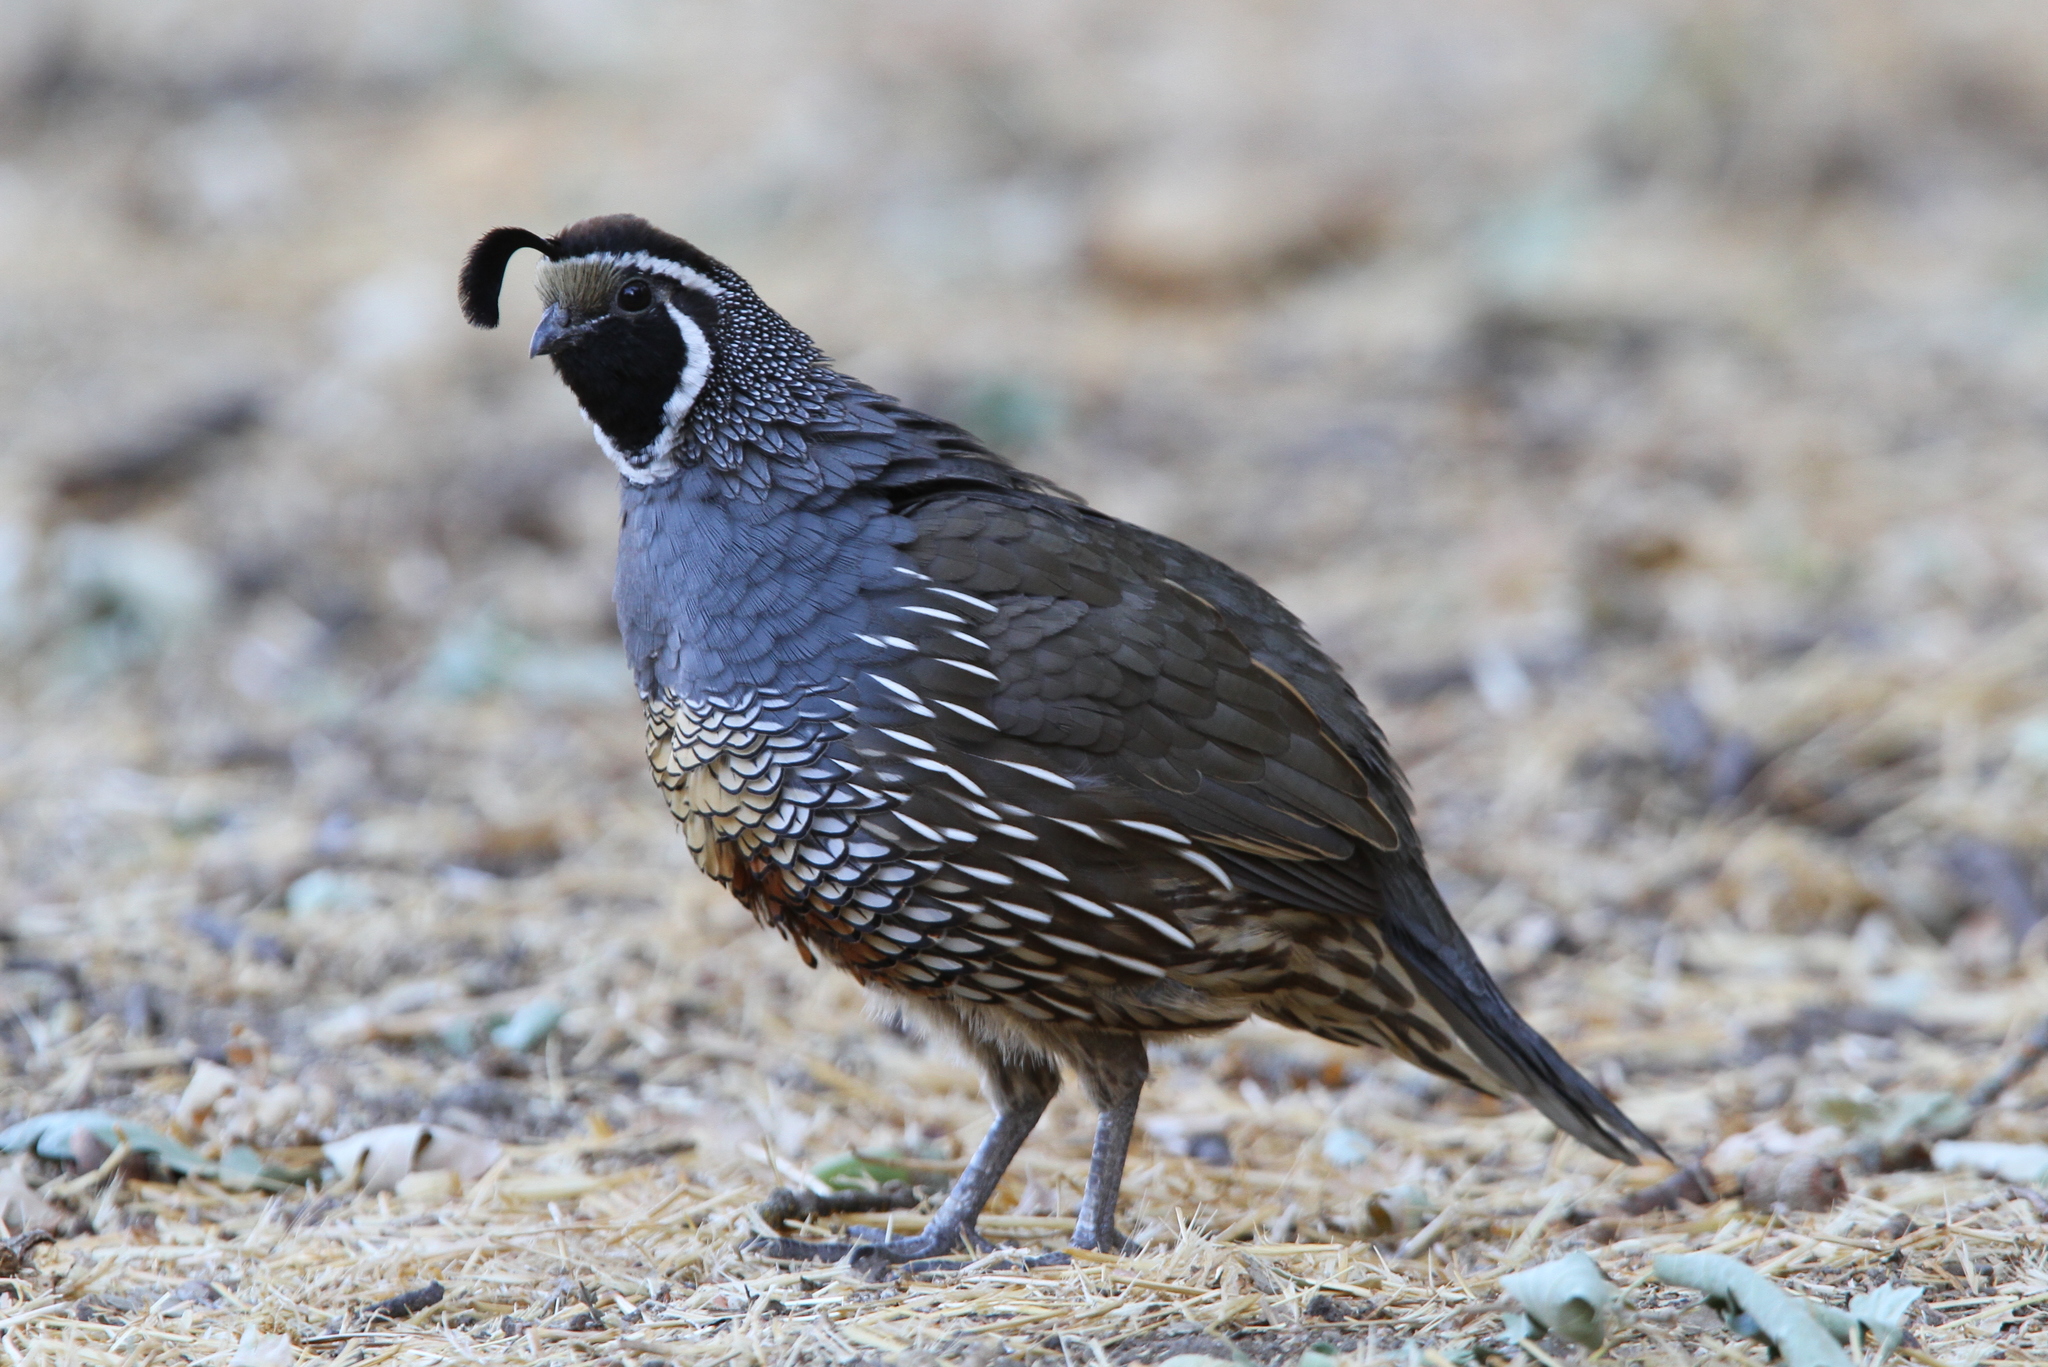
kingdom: Animalia
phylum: Chordata
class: Aves
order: Galliformes
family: Odontophoridae
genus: Callipepla
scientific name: Callipepla californica
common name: California quail
